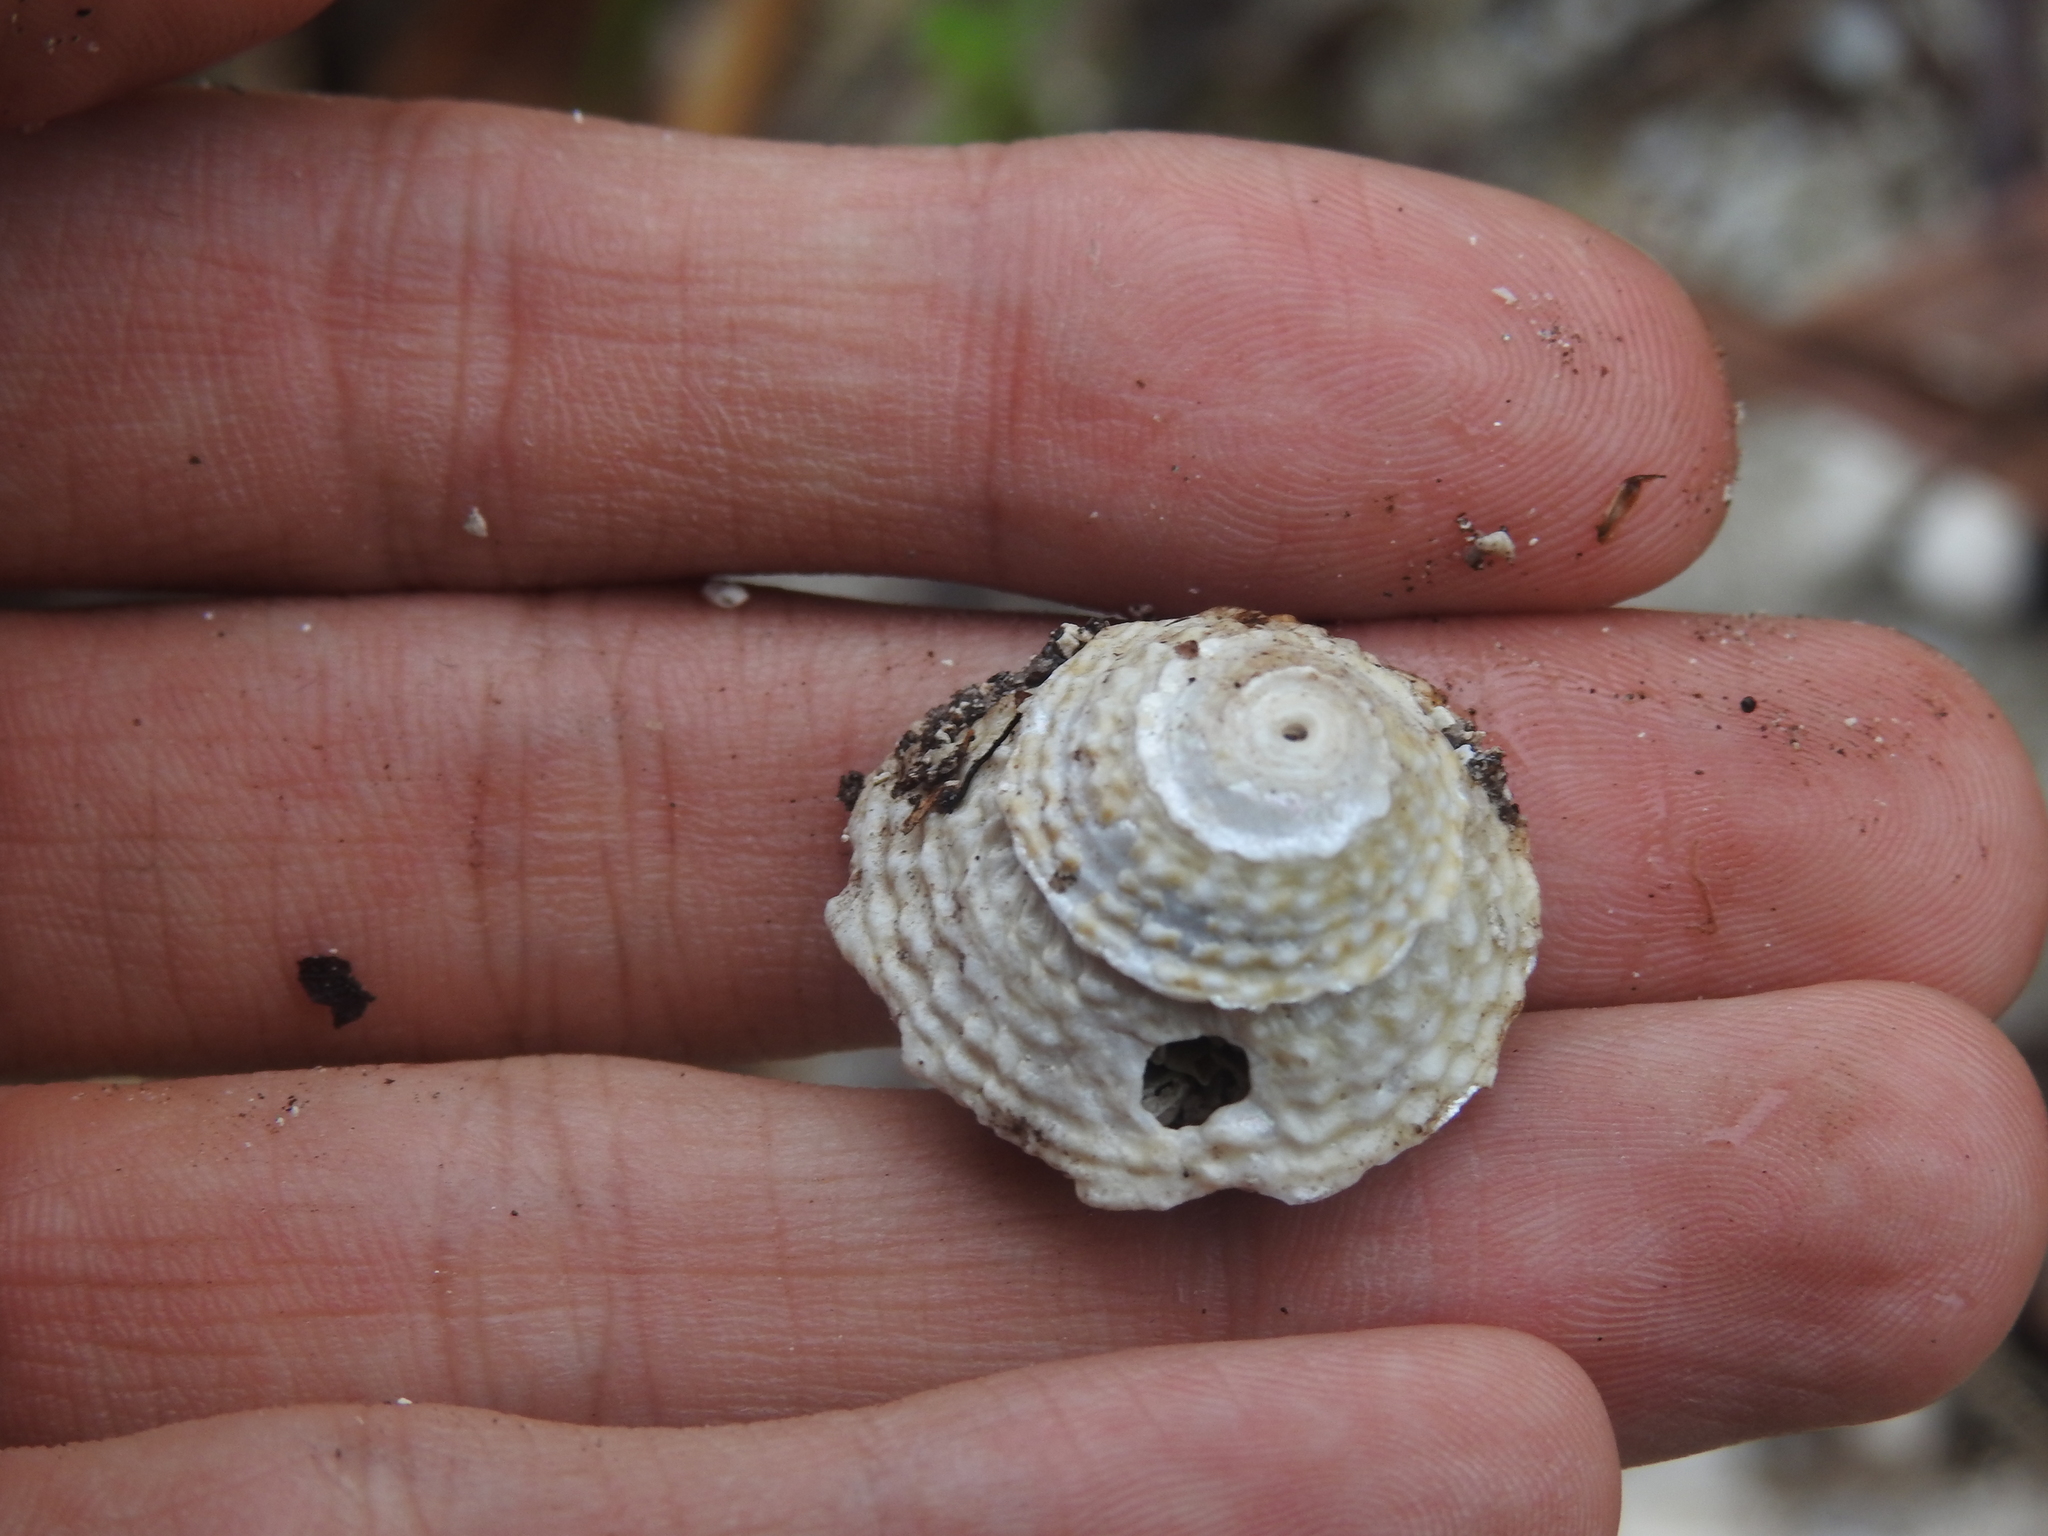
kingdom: Animalia
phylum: Mollusca
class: Gastropoda
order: Trochida
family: Turbinidae
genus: Lithopoma
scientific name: Lithopoma phoebium
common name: Long-spined starsnail
